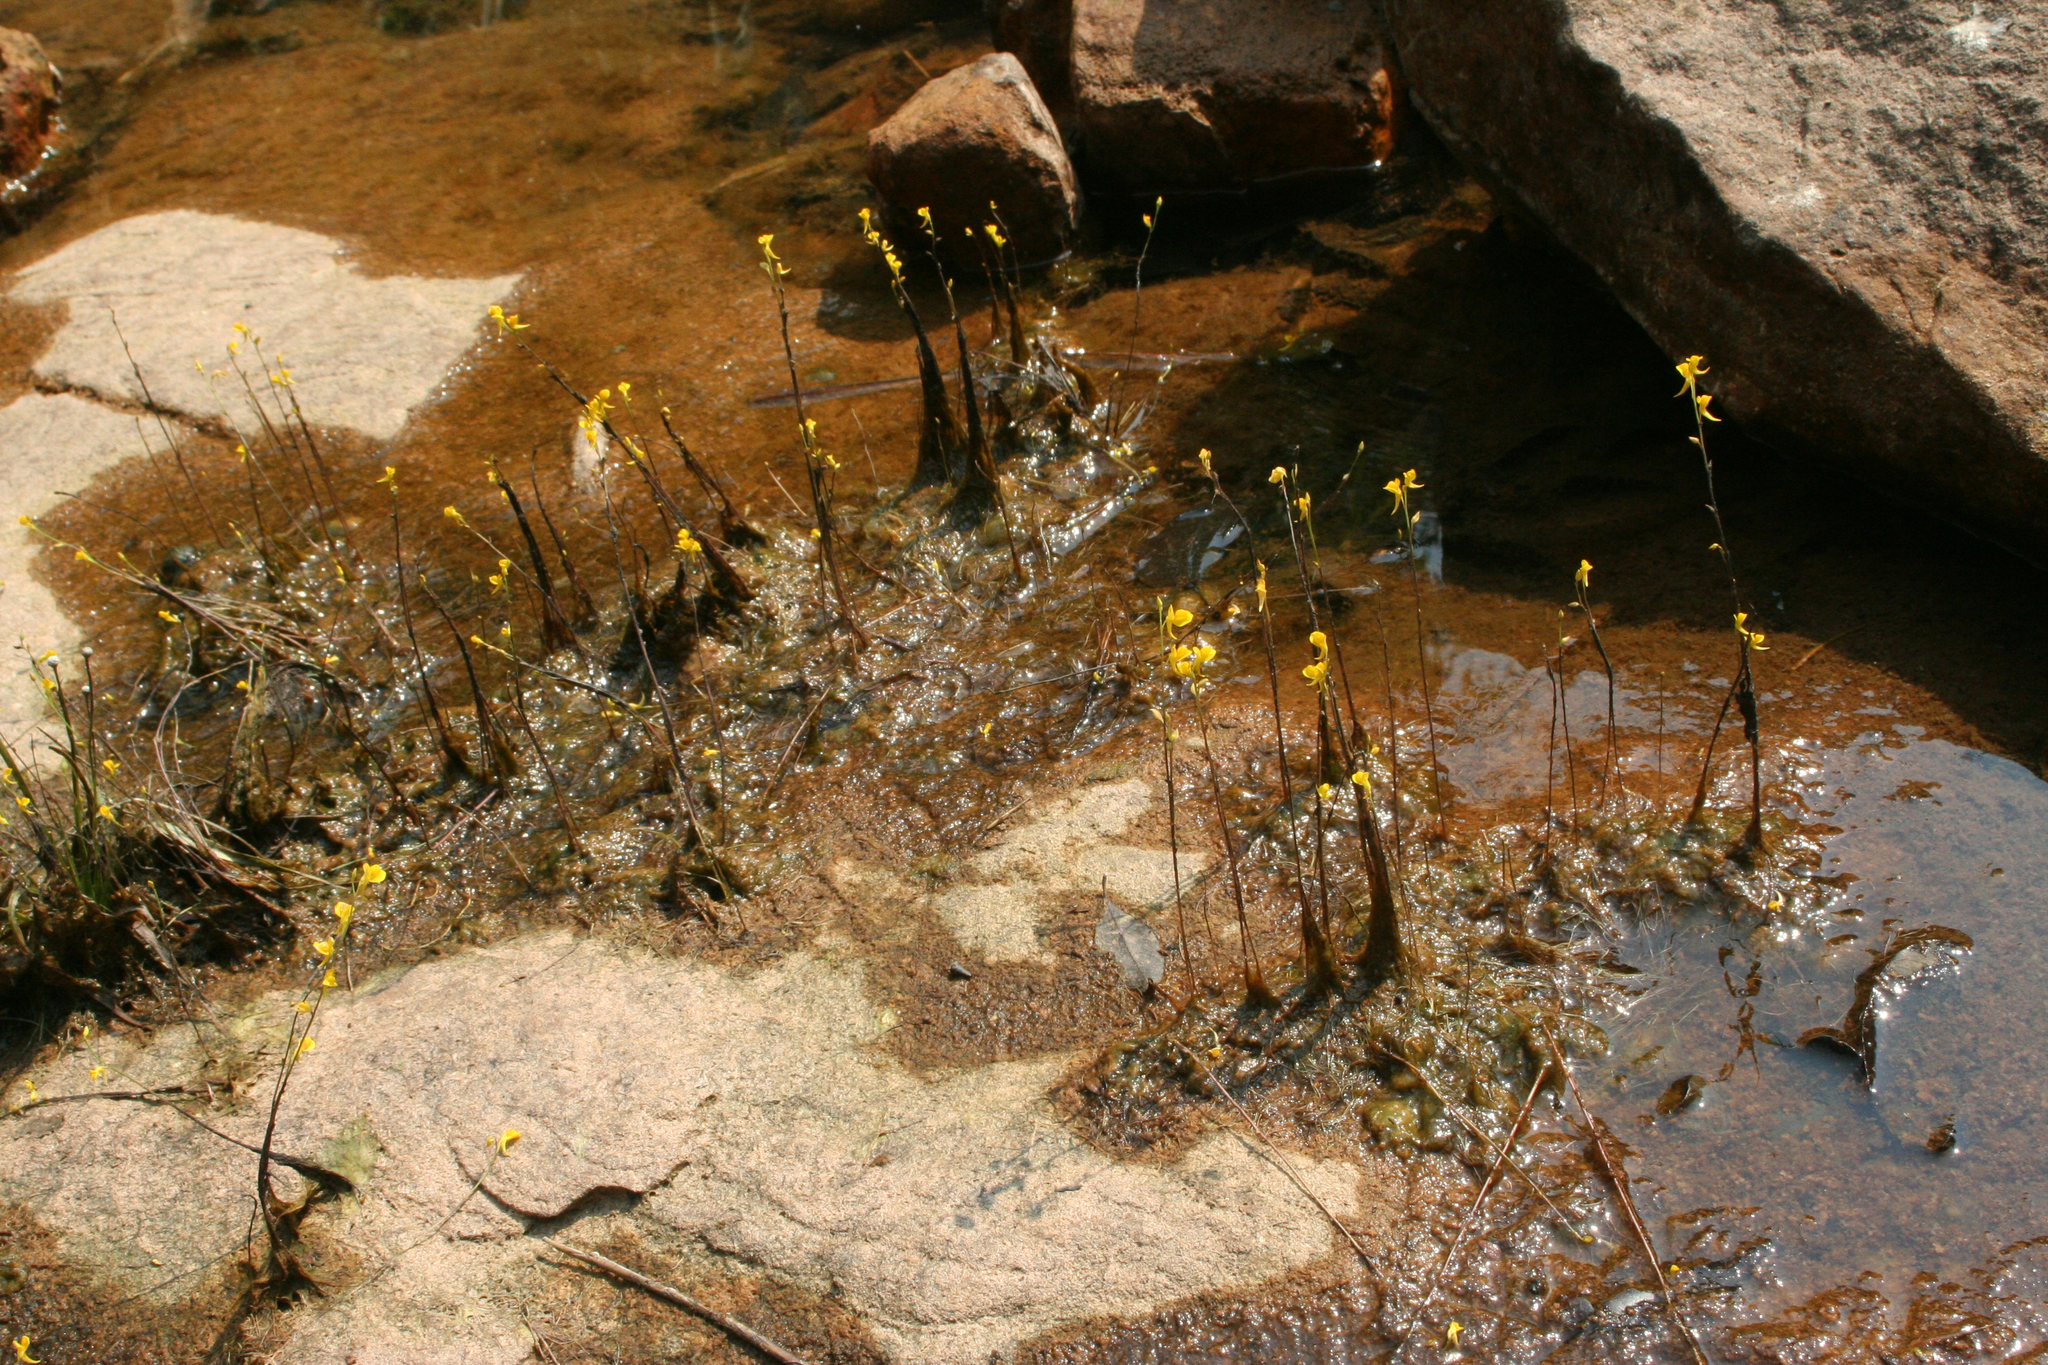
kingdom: Plantae
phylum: Tracheophyta
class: Magnoliopsida
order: Lamiales
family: Lentibulariaceae
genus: Utricularia
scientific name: Utricularia odorata
